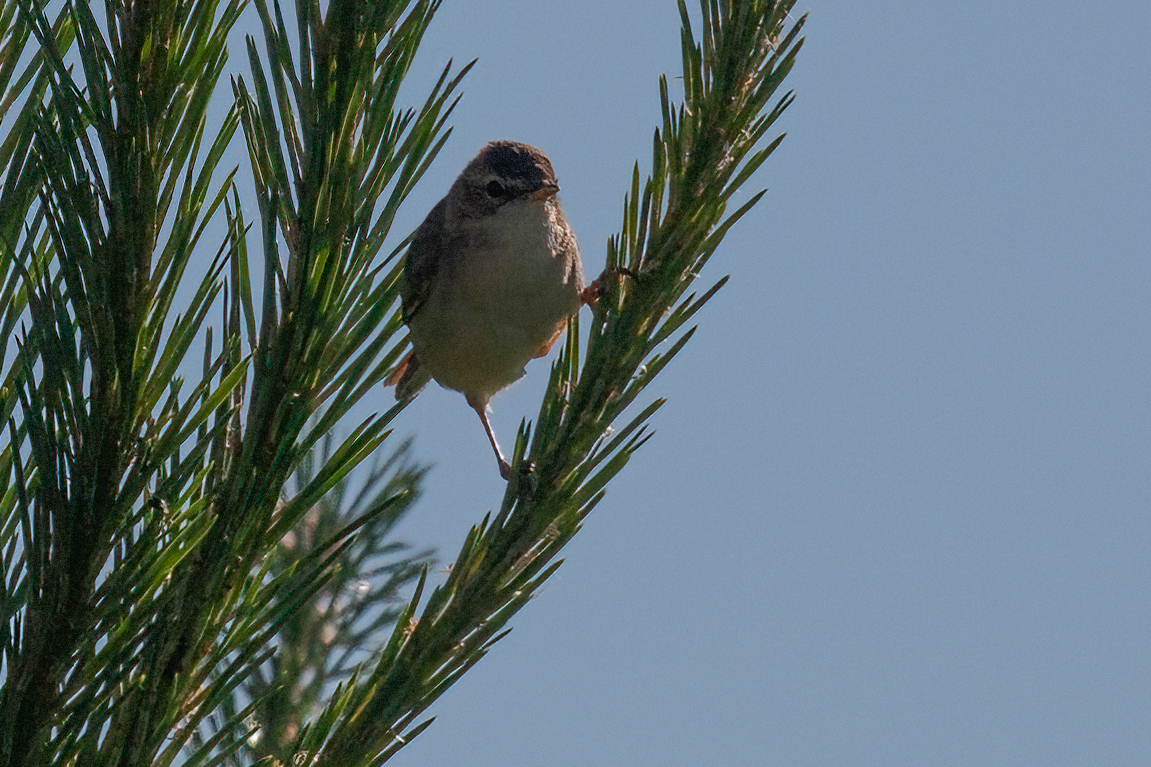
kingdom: Animalia
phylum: Chordata
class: Aves
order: Passeriformes
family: Acrocephalidae
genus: Acrocephalus
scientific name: Acrocephalus palustris
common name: Marsh warbler
